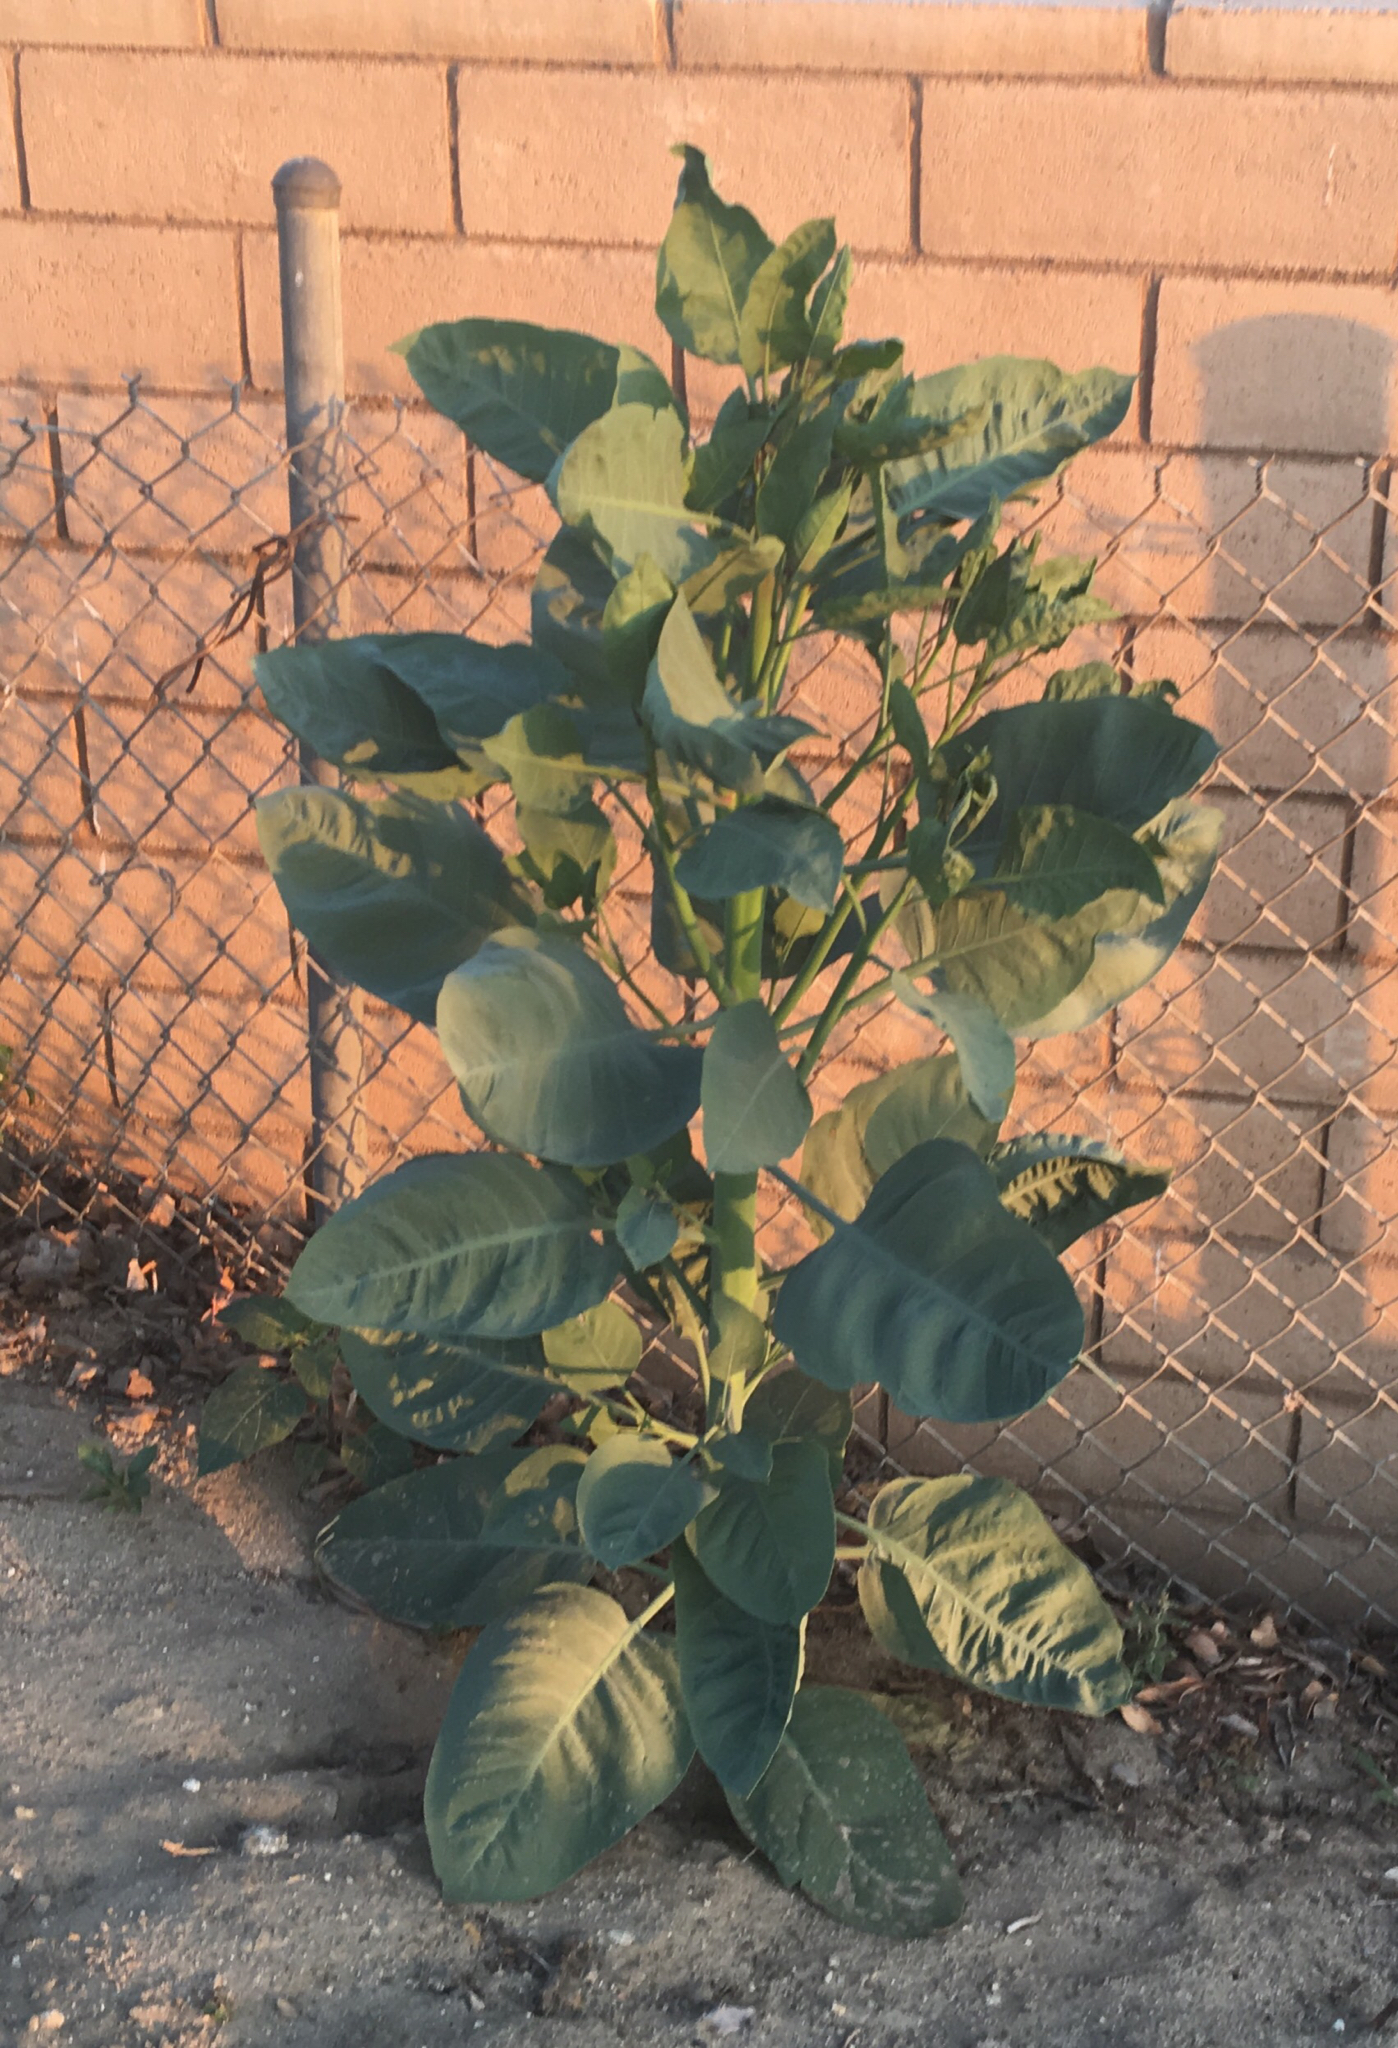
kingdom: Plantae
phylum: Tracheophyta
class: Magnoliopsida
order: Solanales
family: Solanaceae
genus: Nicotiana
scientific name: Nicotiana glauca
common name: Tree tobacco
